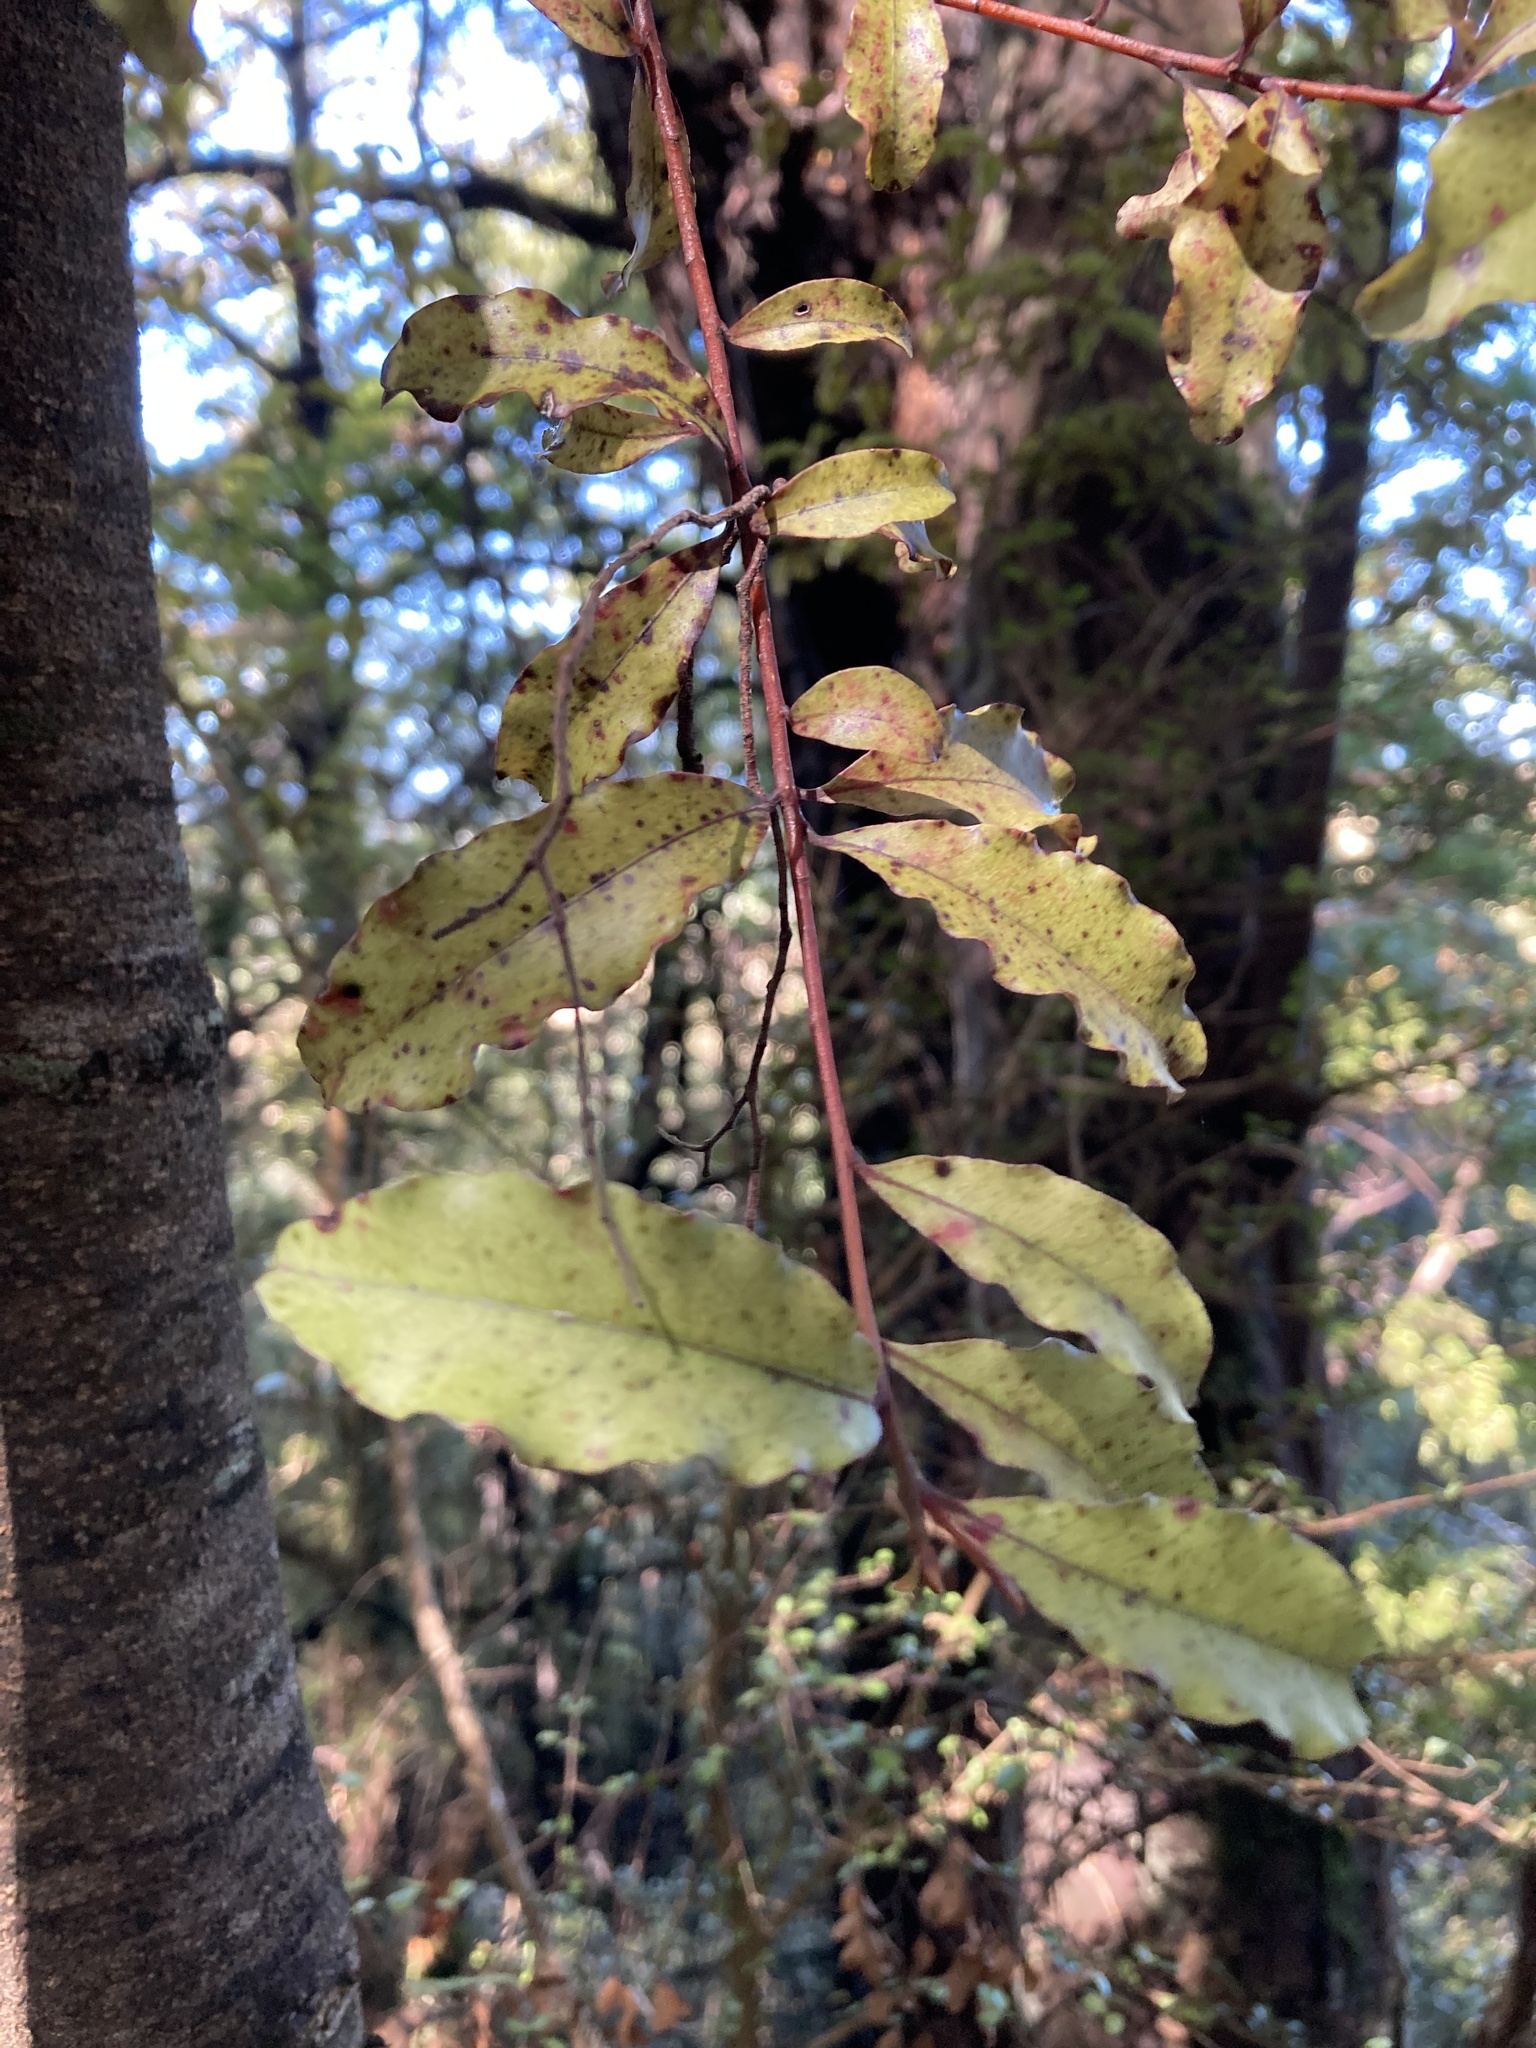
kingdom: Plantae
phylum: Tracheophyta
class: Magnoliopsida
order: Ericales
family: Primulaceae
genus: Myrsine
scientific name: Myrsine australis
